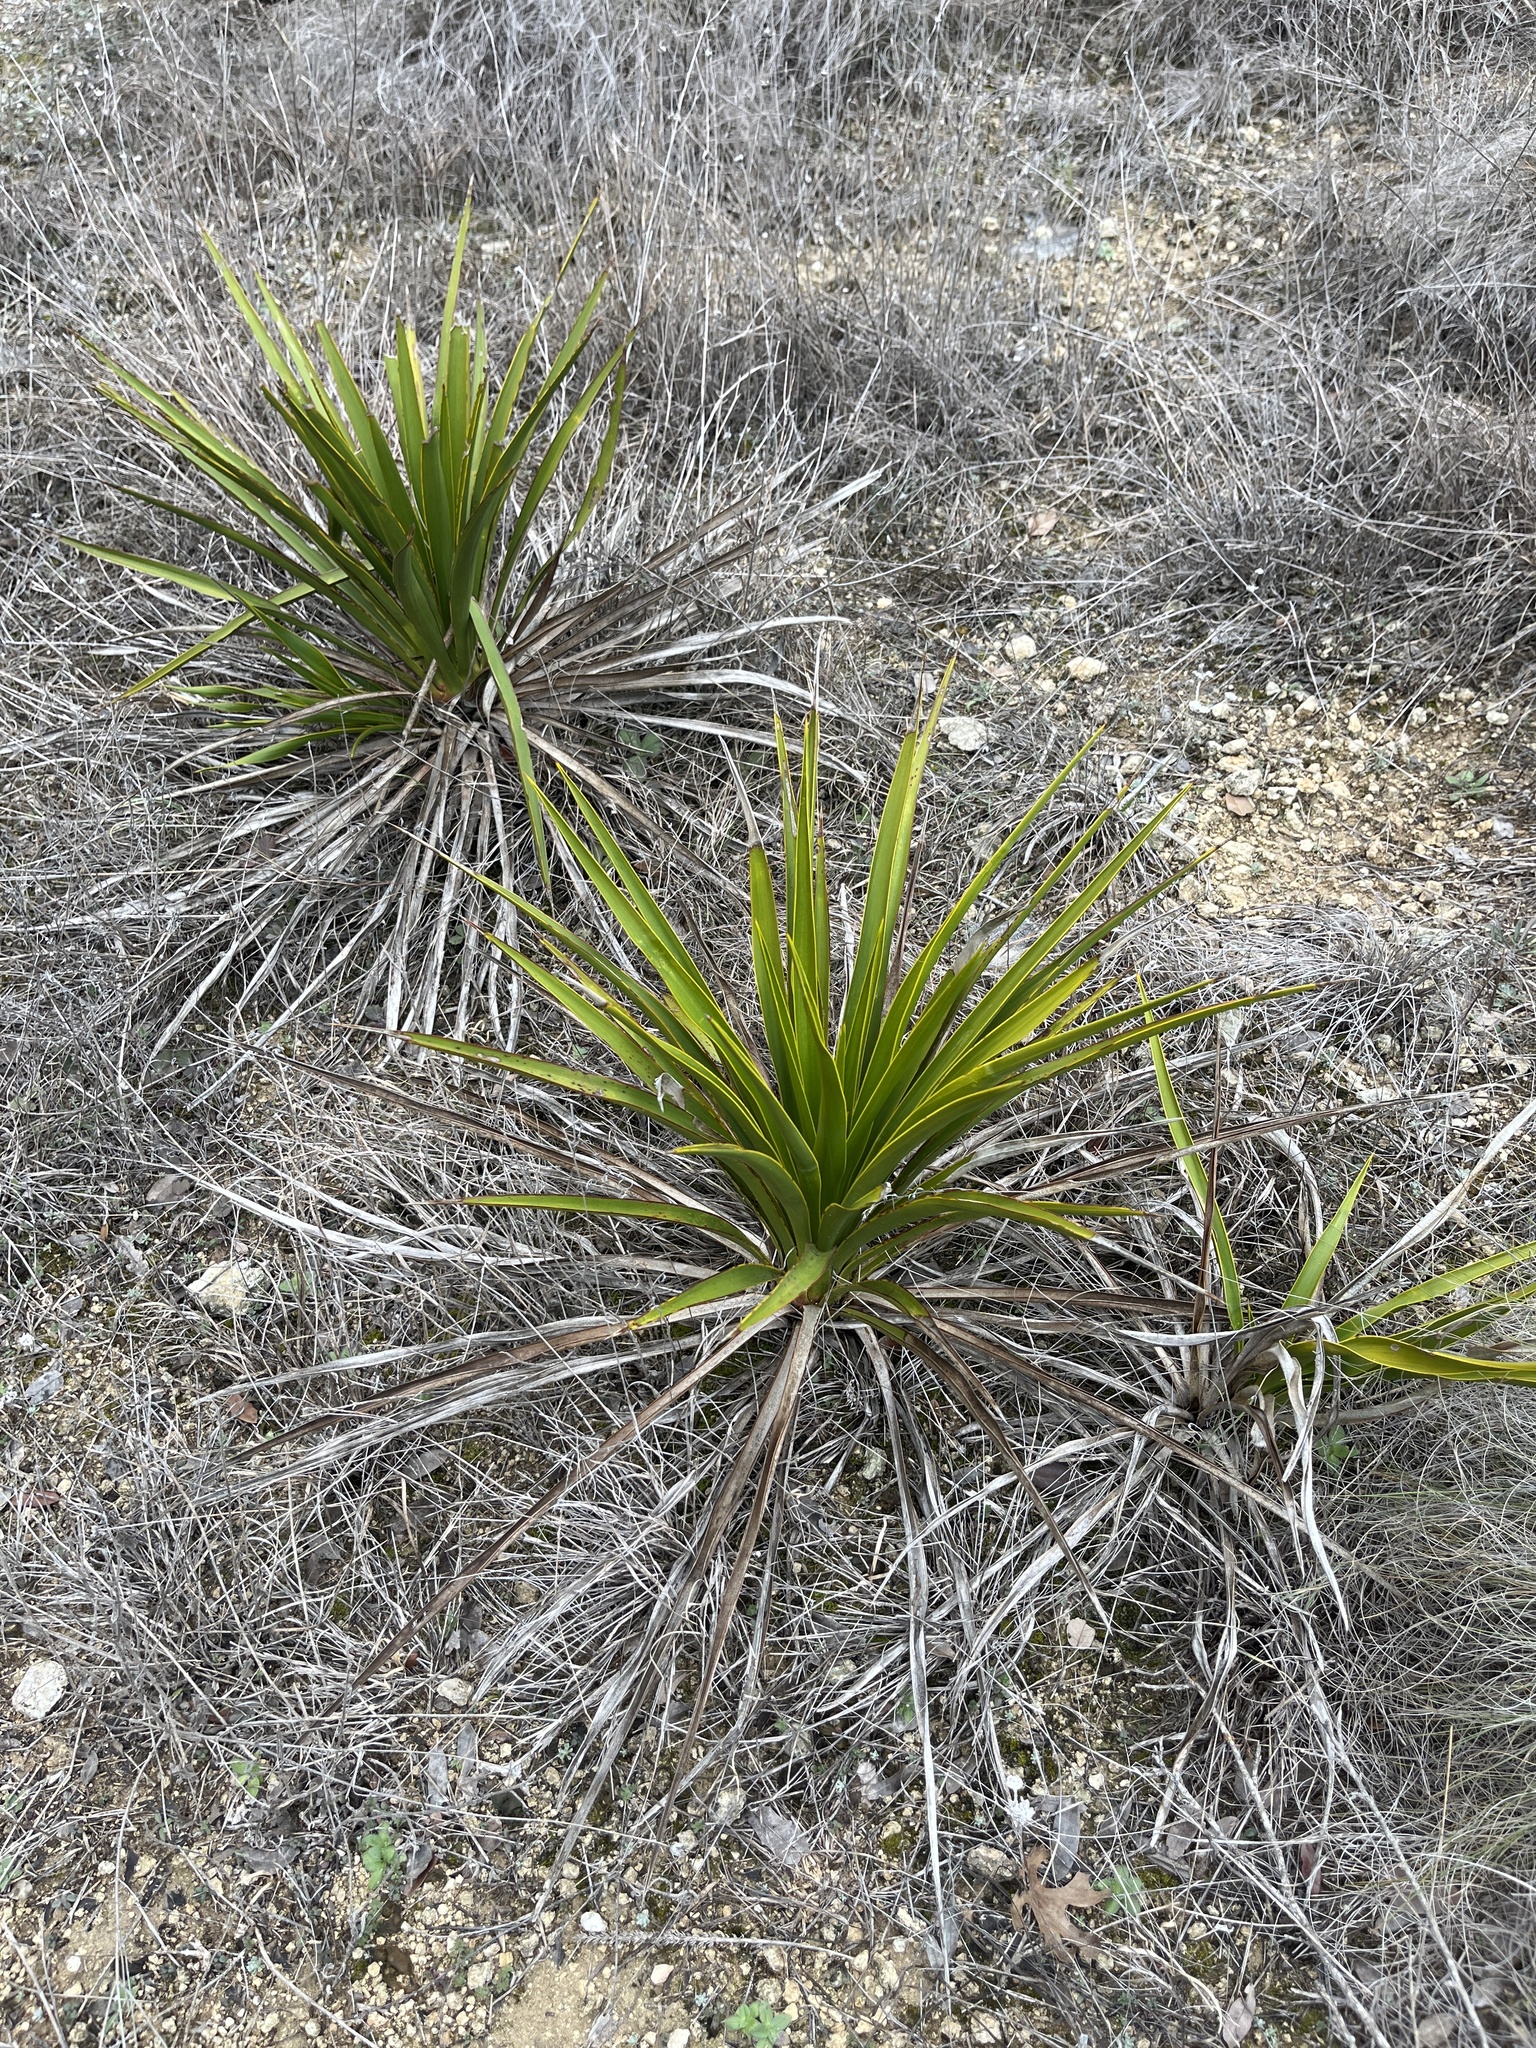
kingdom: Plantae
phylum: Tracheophyta
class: Liliopsida
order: Asparagales
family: Asparagaceae
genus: Yucca
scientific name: Yucca rupicola
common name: Twisted-leaf spanish-dagger
